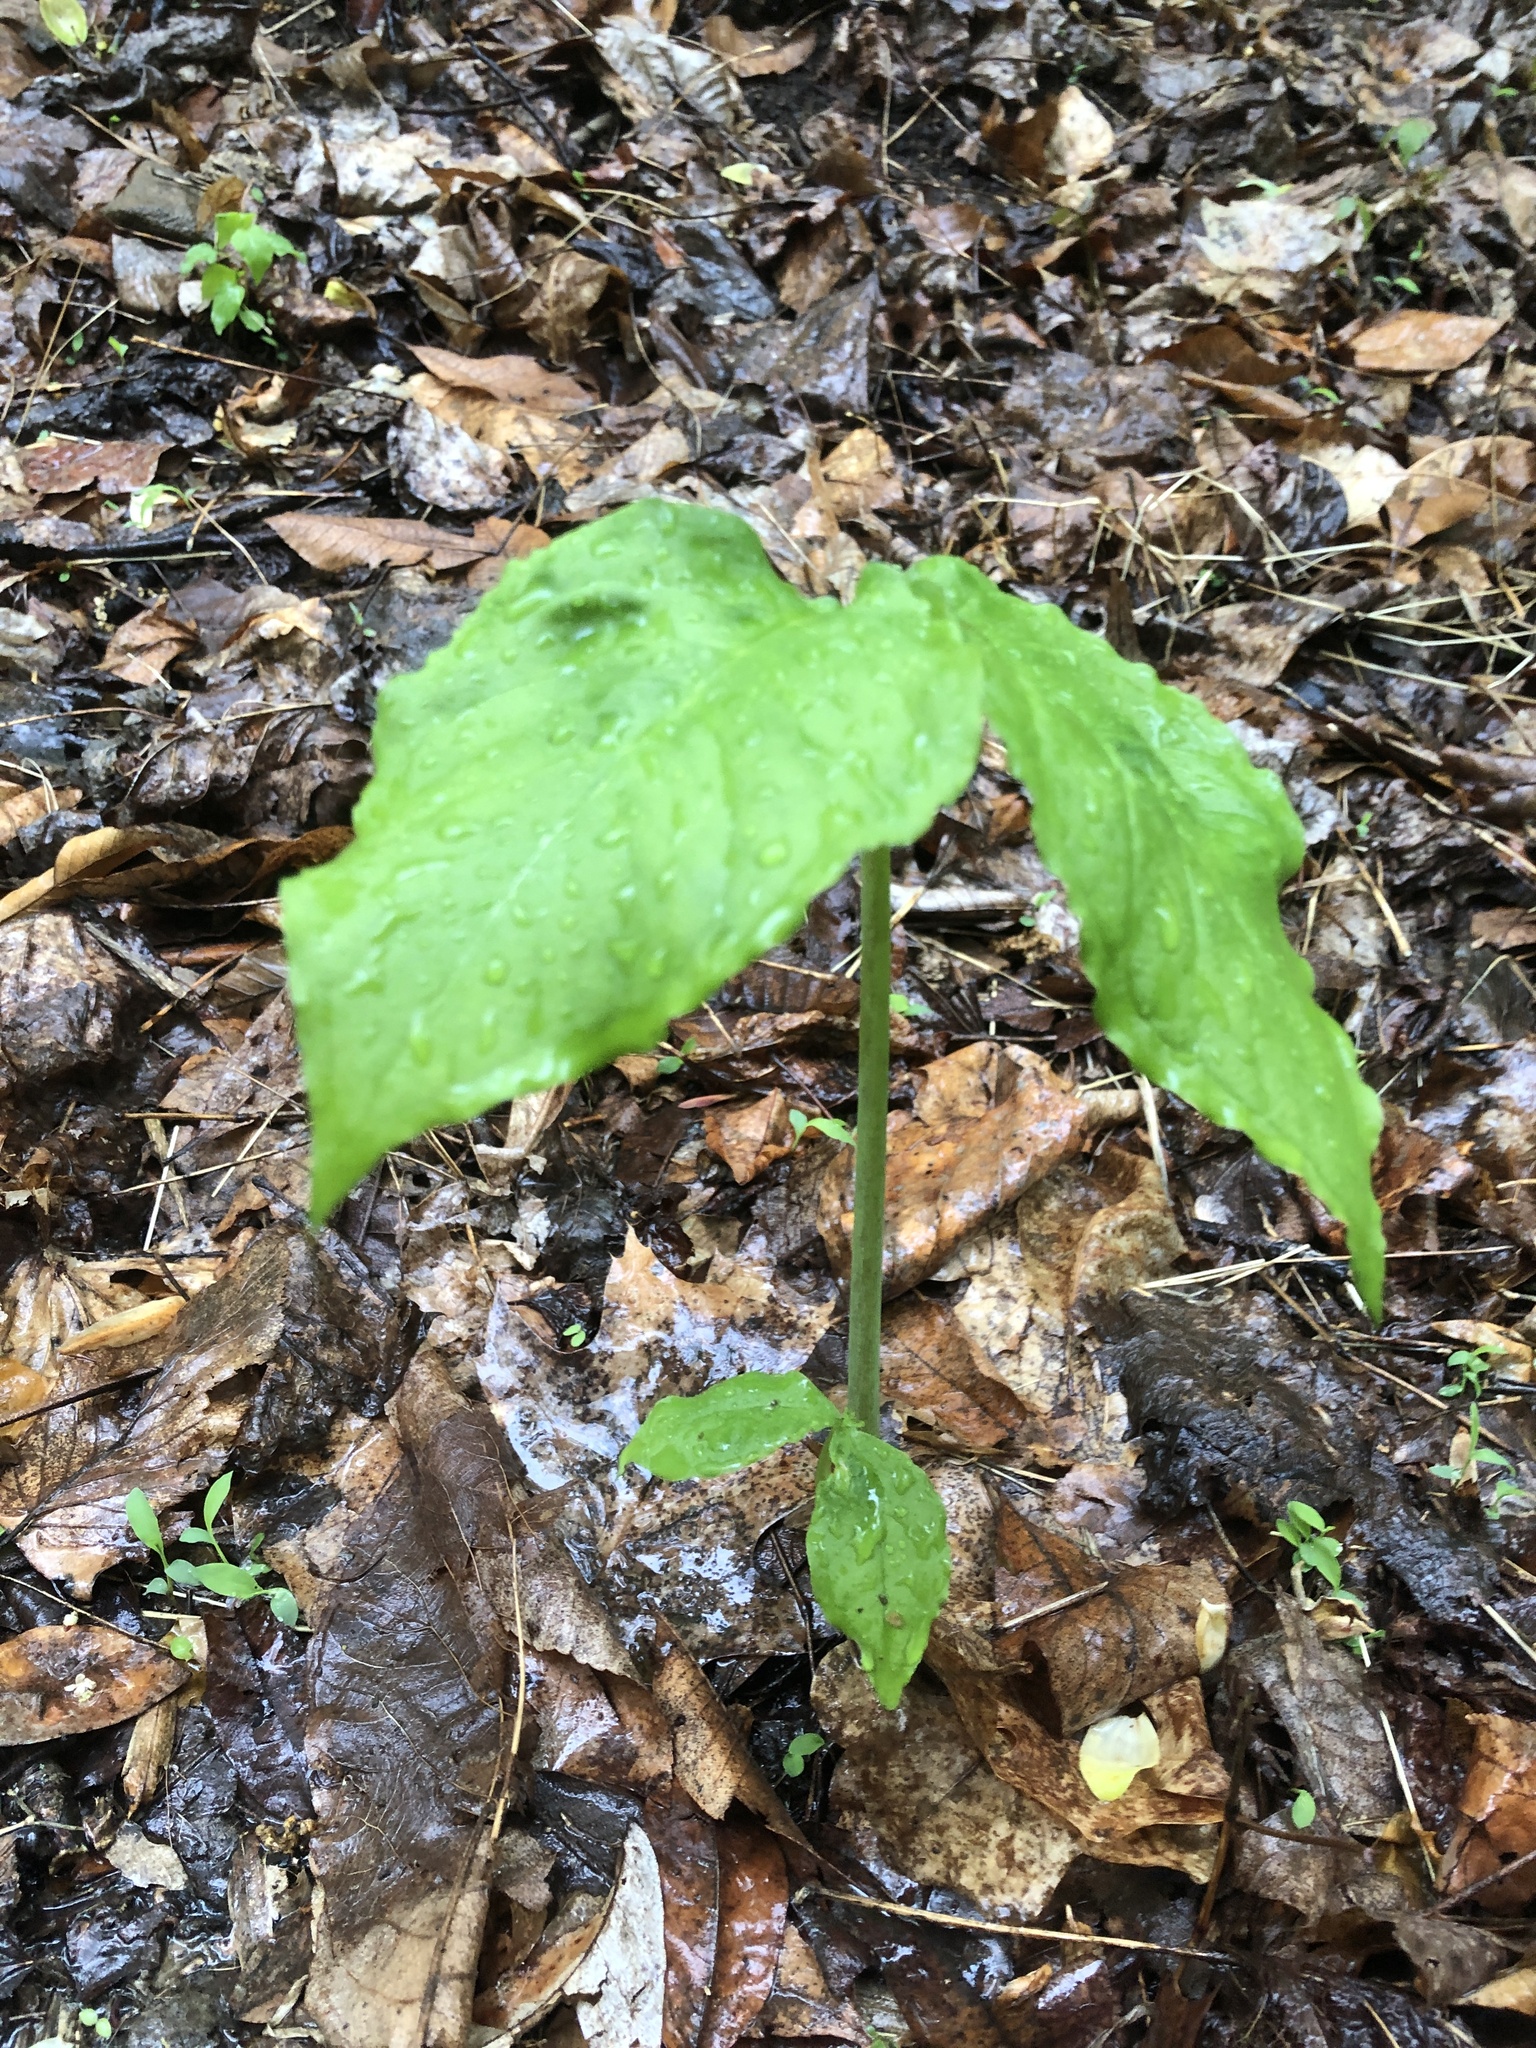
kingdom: Plantae
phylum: Tracheophyta
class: Liliopsida
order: Alismatales
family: Araceae
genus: Arisaema
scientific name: Arisaema triphyllum
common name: Jack-in-the-pulpit
